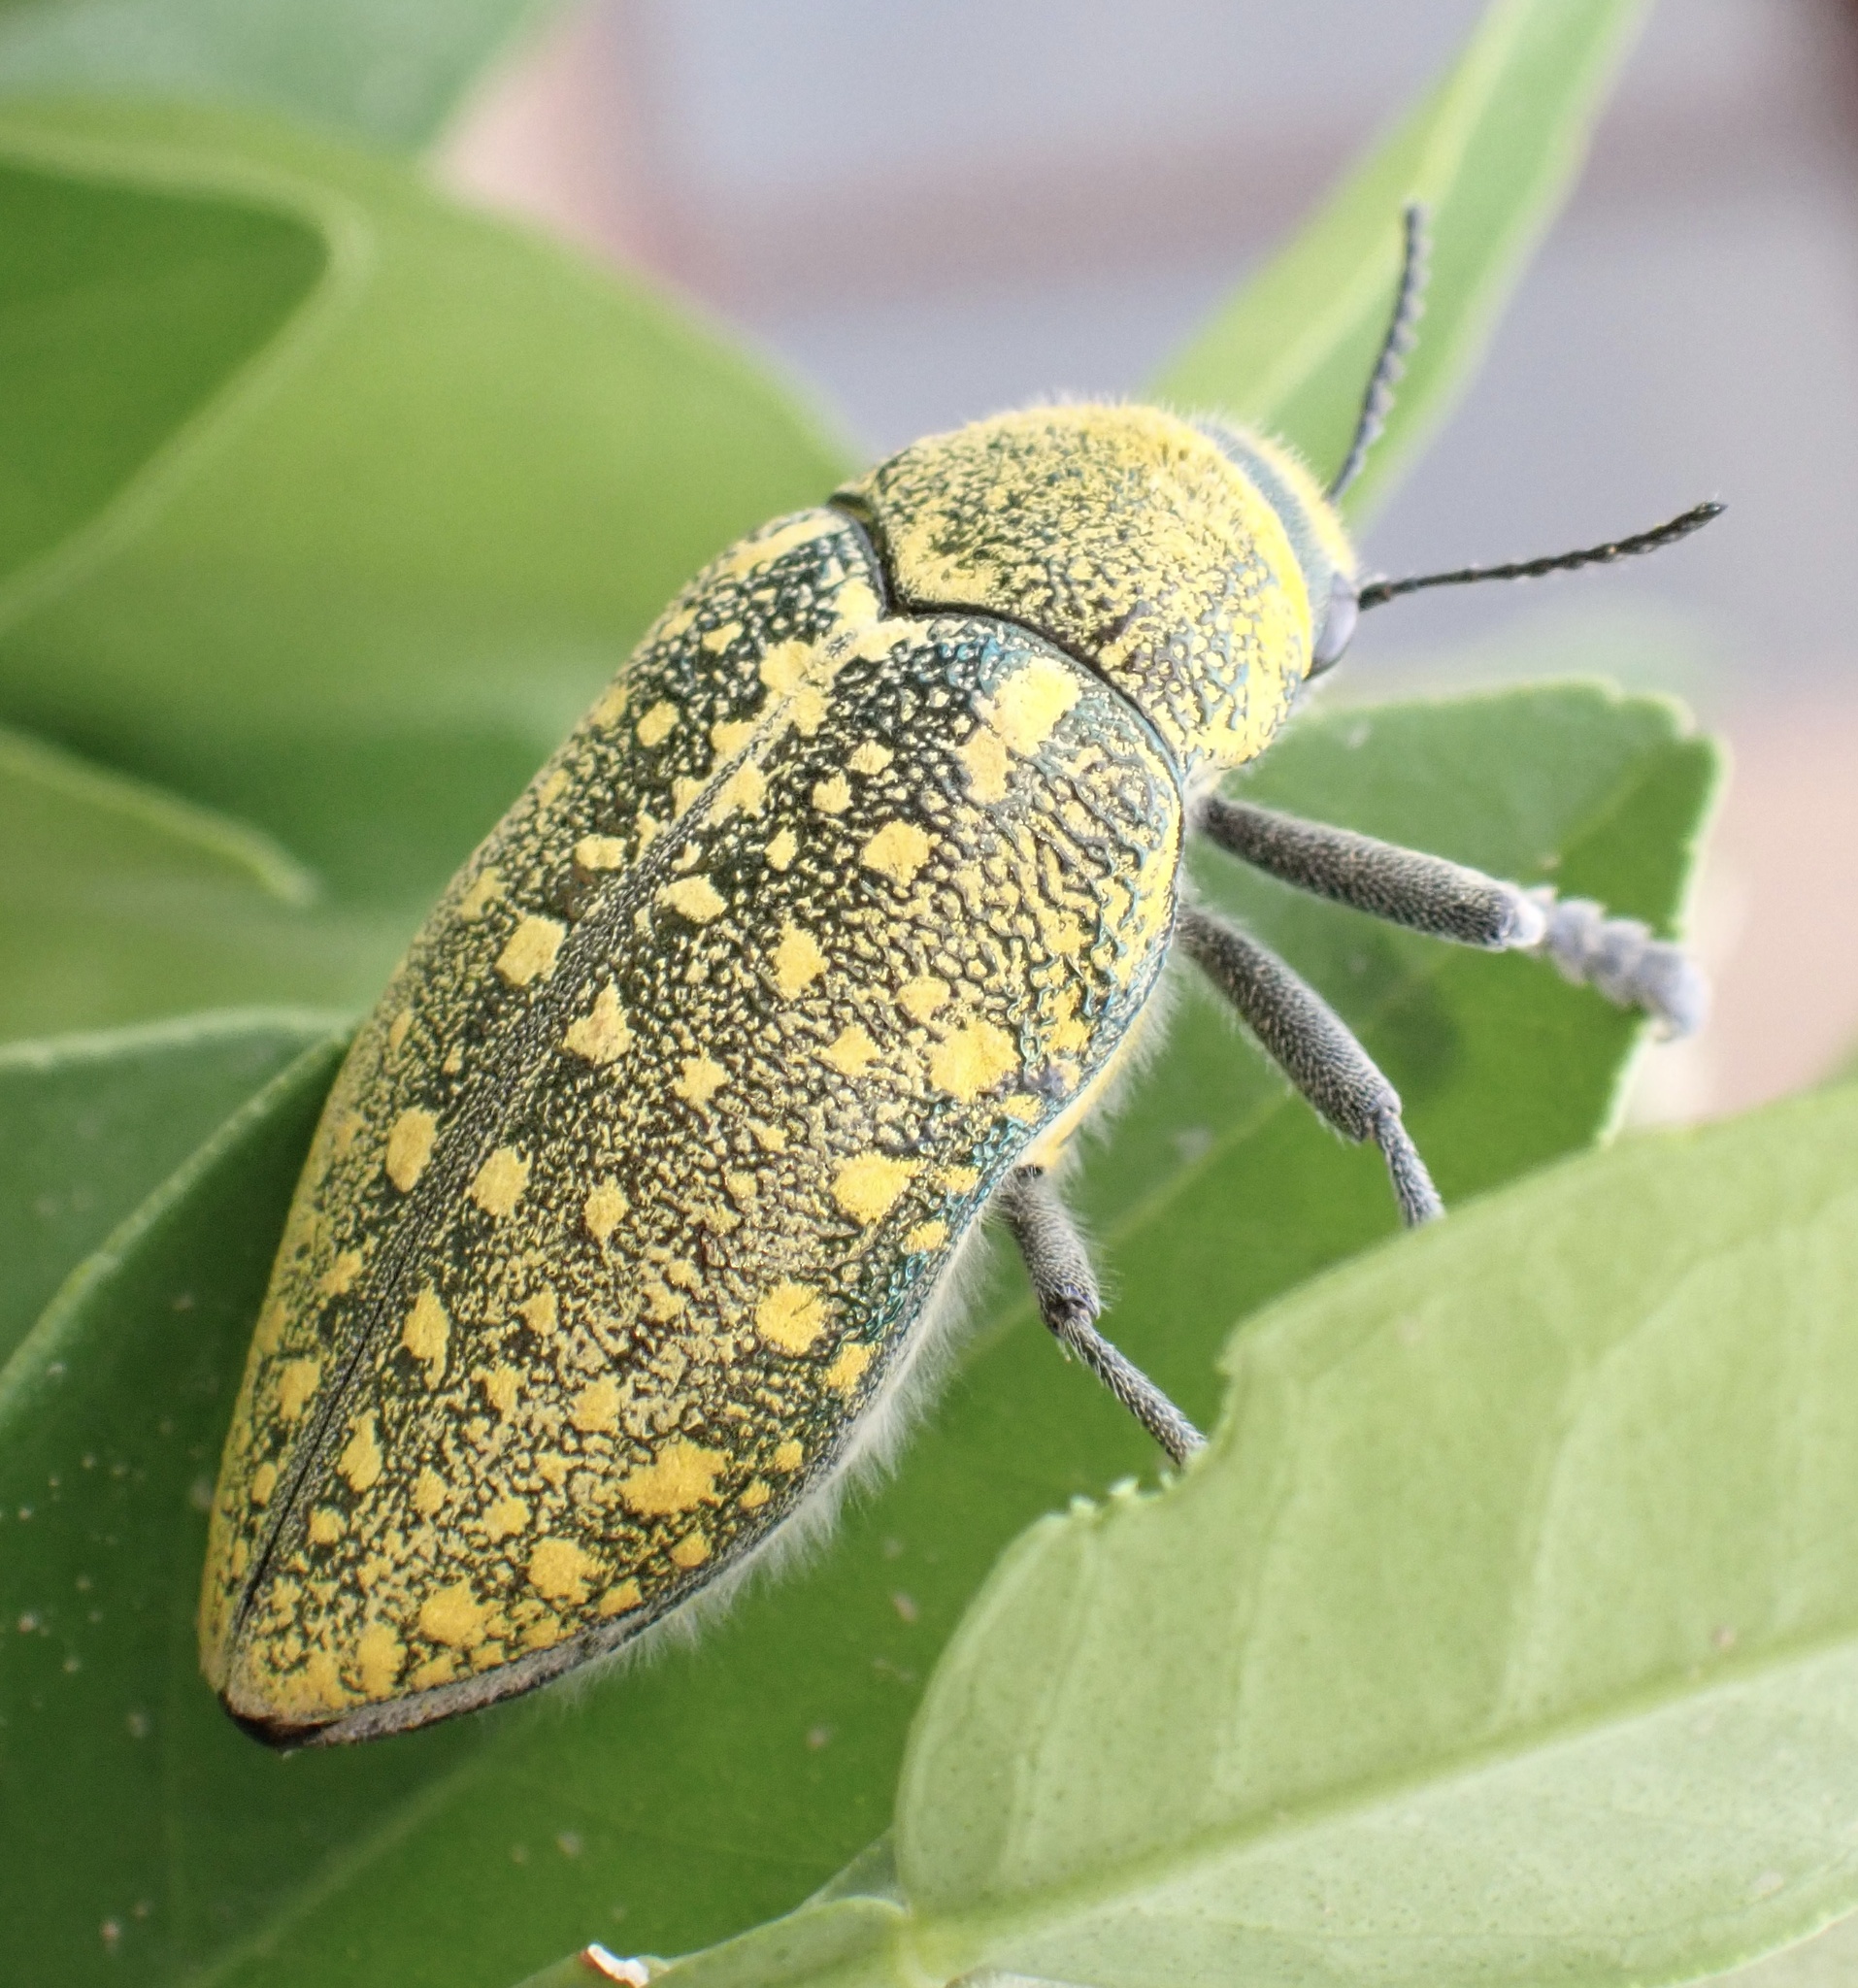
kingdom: Animalia
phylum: Arthropoda
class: Insecta
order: Coleoptera
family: Buprestidae
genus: Julodis
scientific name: Julodis aequinoctialis
